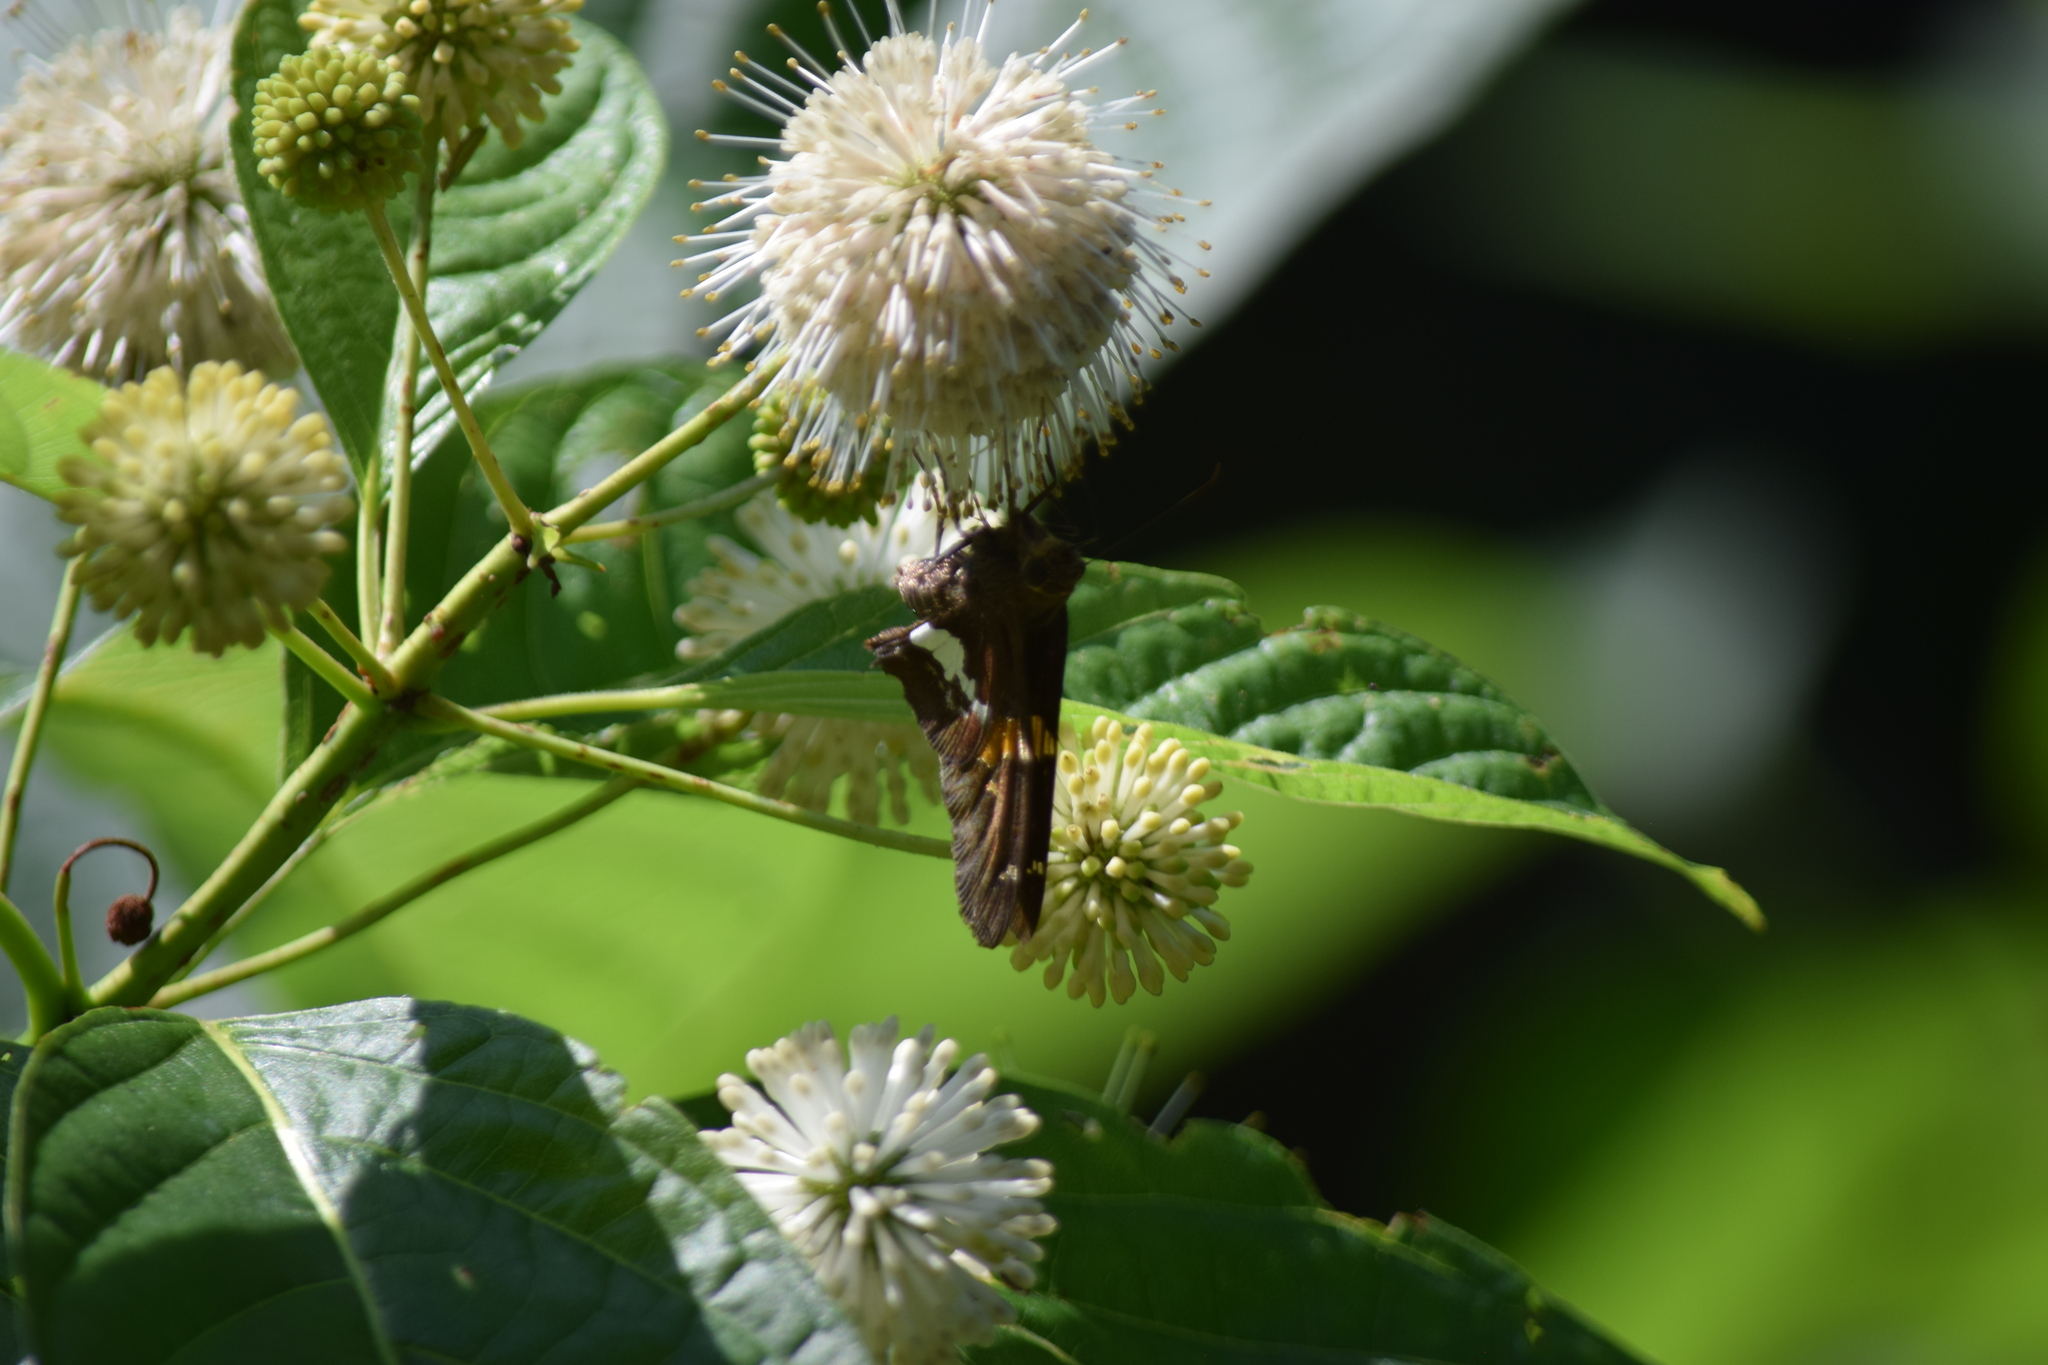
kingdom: Animalia
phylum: Arthropoda
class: Insecta
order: Lepidoptera
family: Hesperiidae
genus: Epargyreus
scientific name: Epargyreus clarus
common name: Silver-spotted skipper
